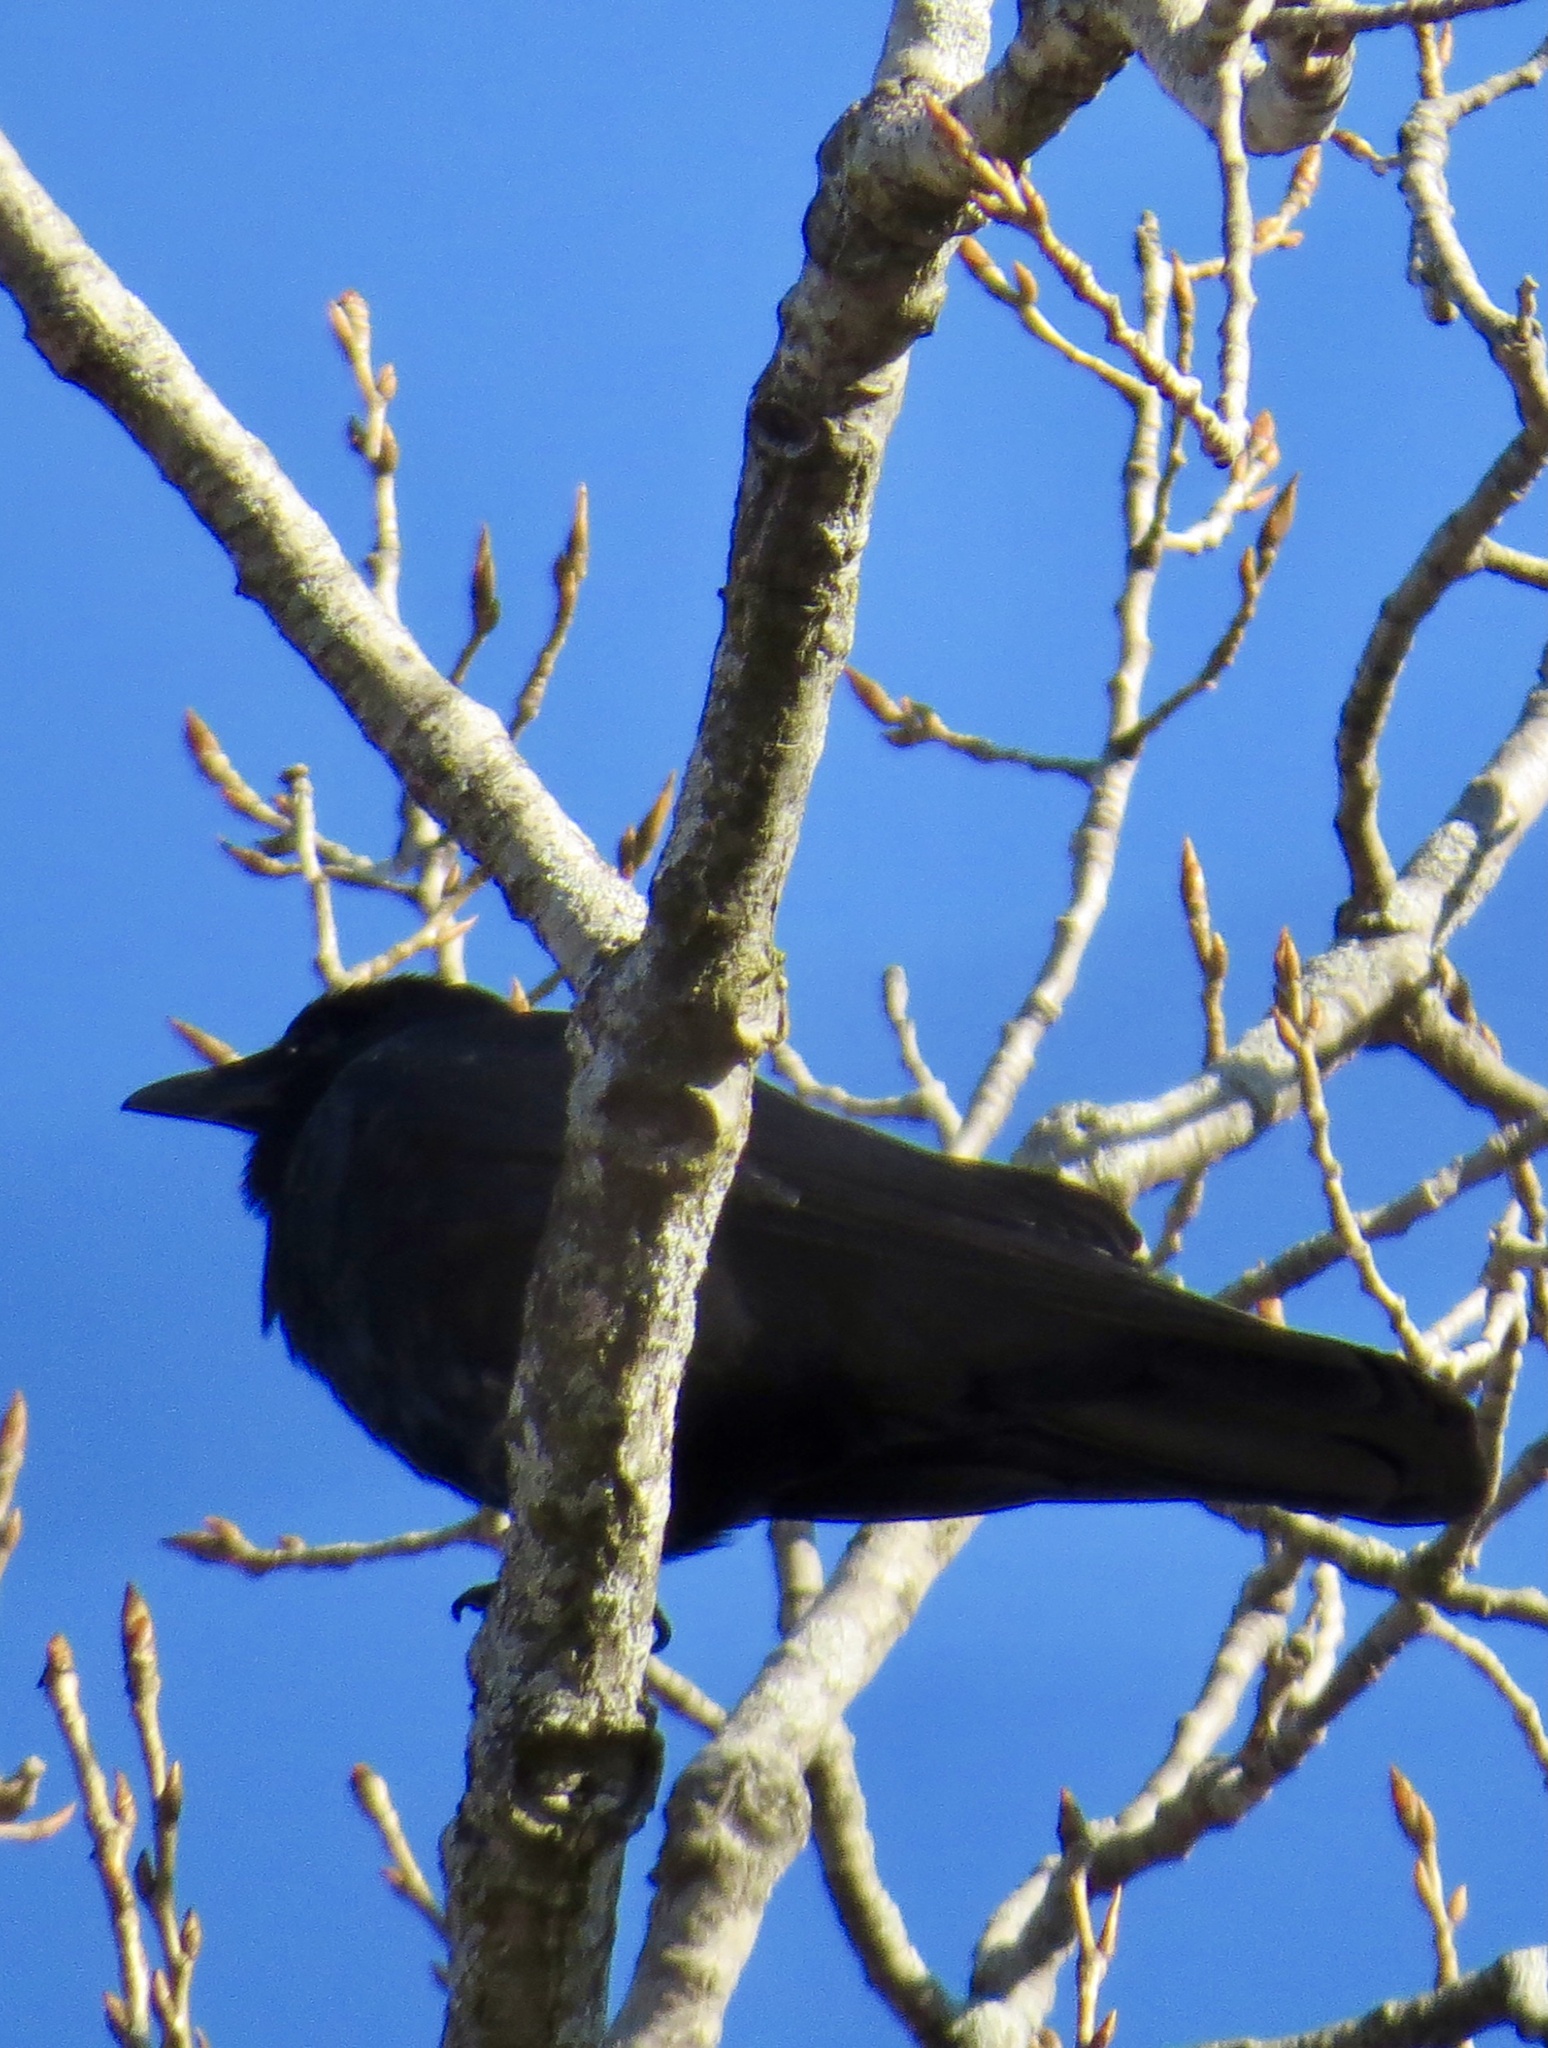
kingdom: Animalia
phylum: Chordata
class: Aves
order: Passeriformes
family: Corvidae
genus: Corvus
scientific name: Corvus ossifragus
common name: Fish crow
